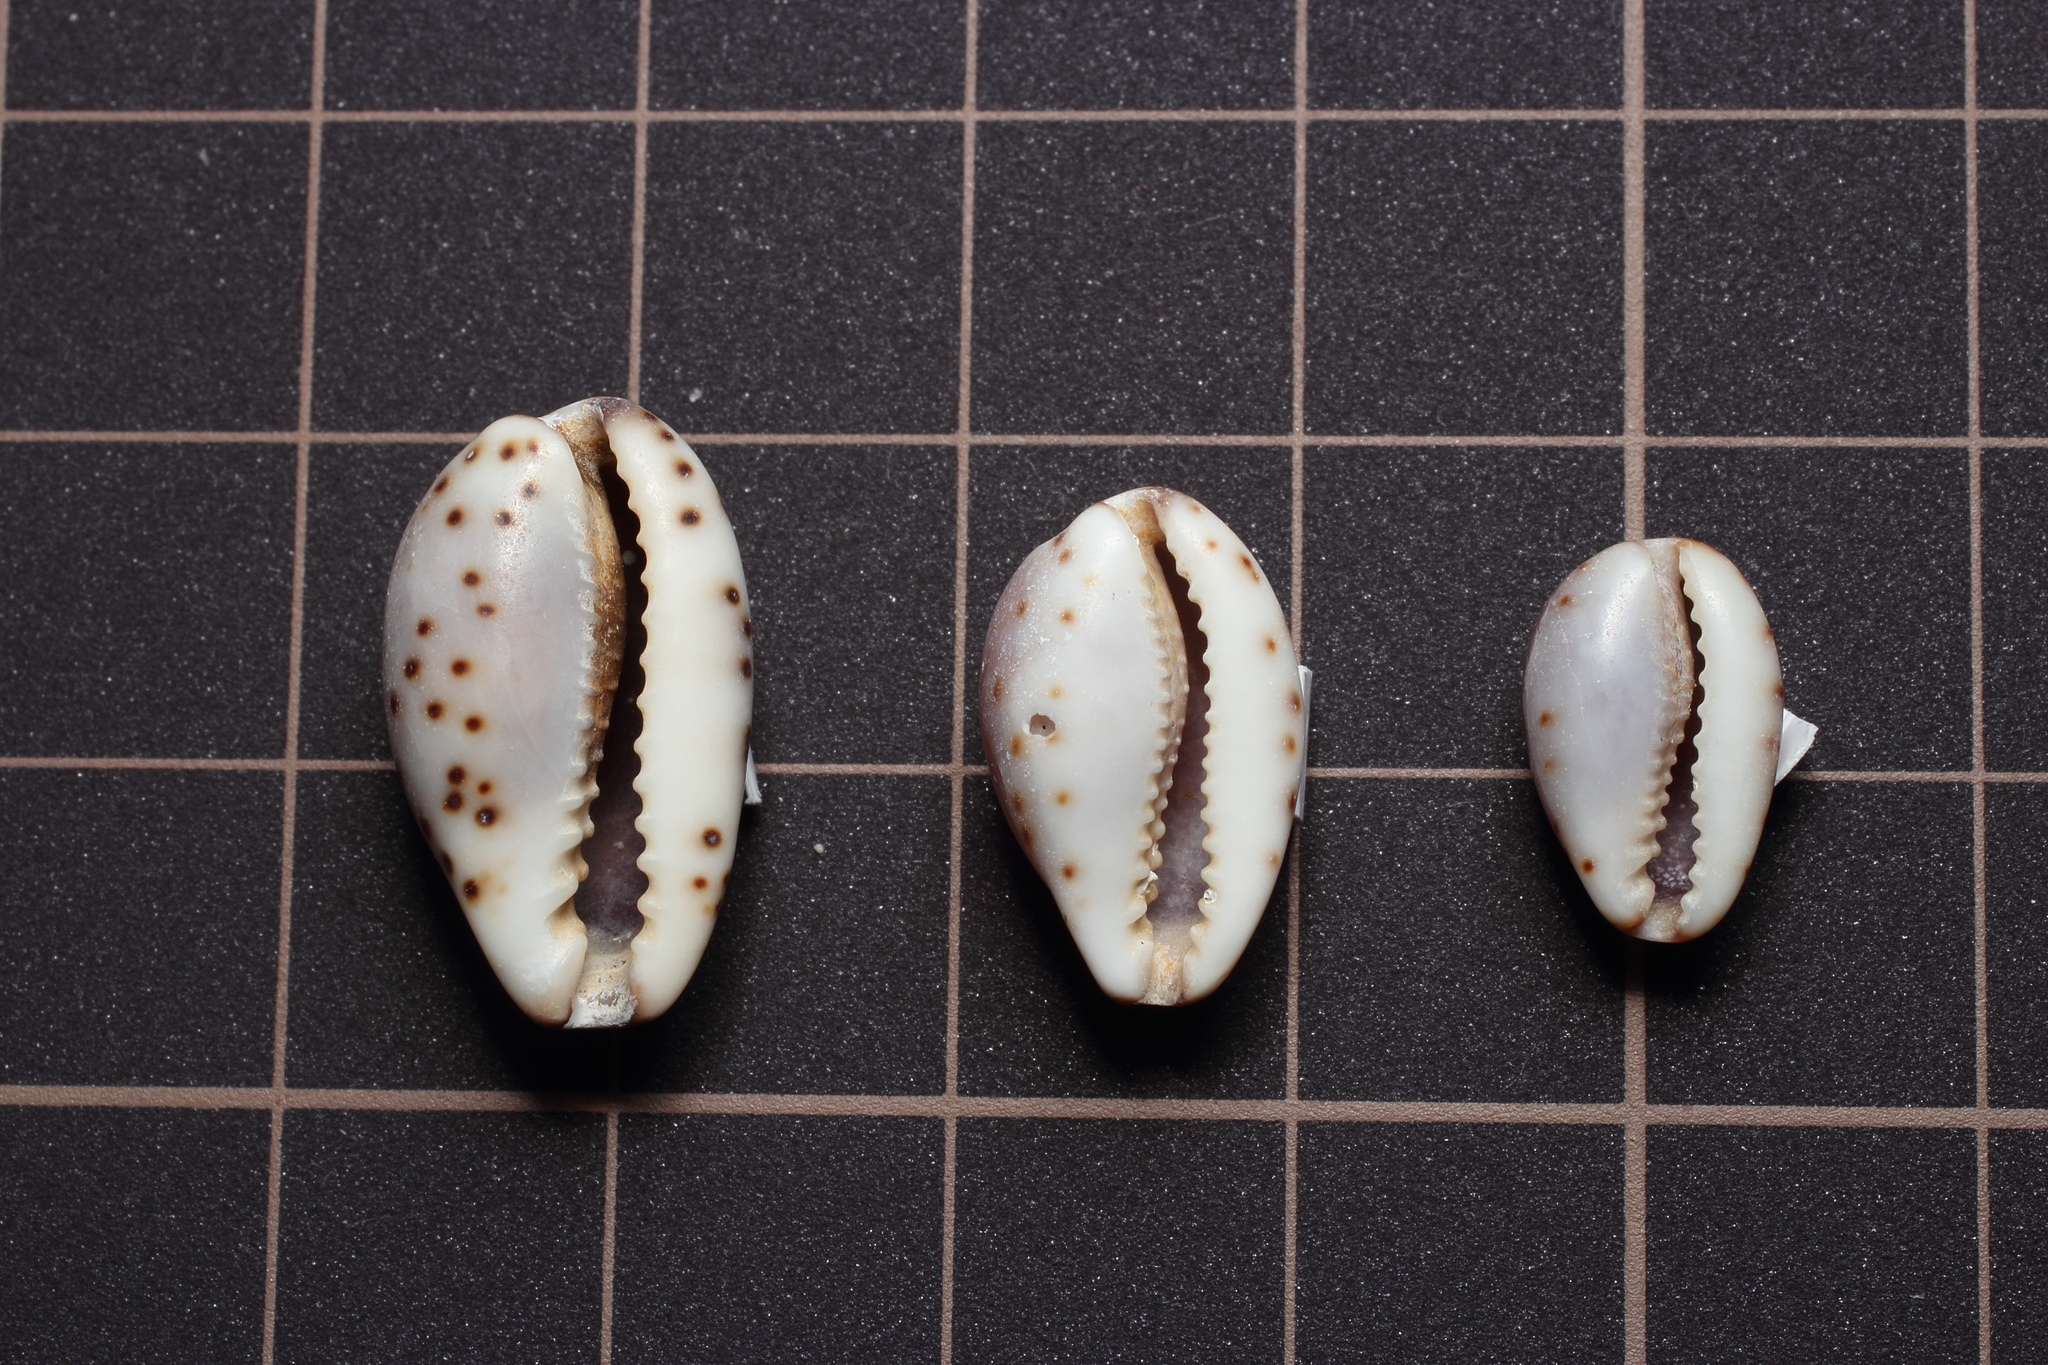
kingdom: Animalia
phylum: Mollusca
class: Gastropoda
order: Littorinimorpha
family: Cypraeidae
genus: Purpuradusta
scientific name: Purpuradusta gracilis
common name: Graceful cowrie
